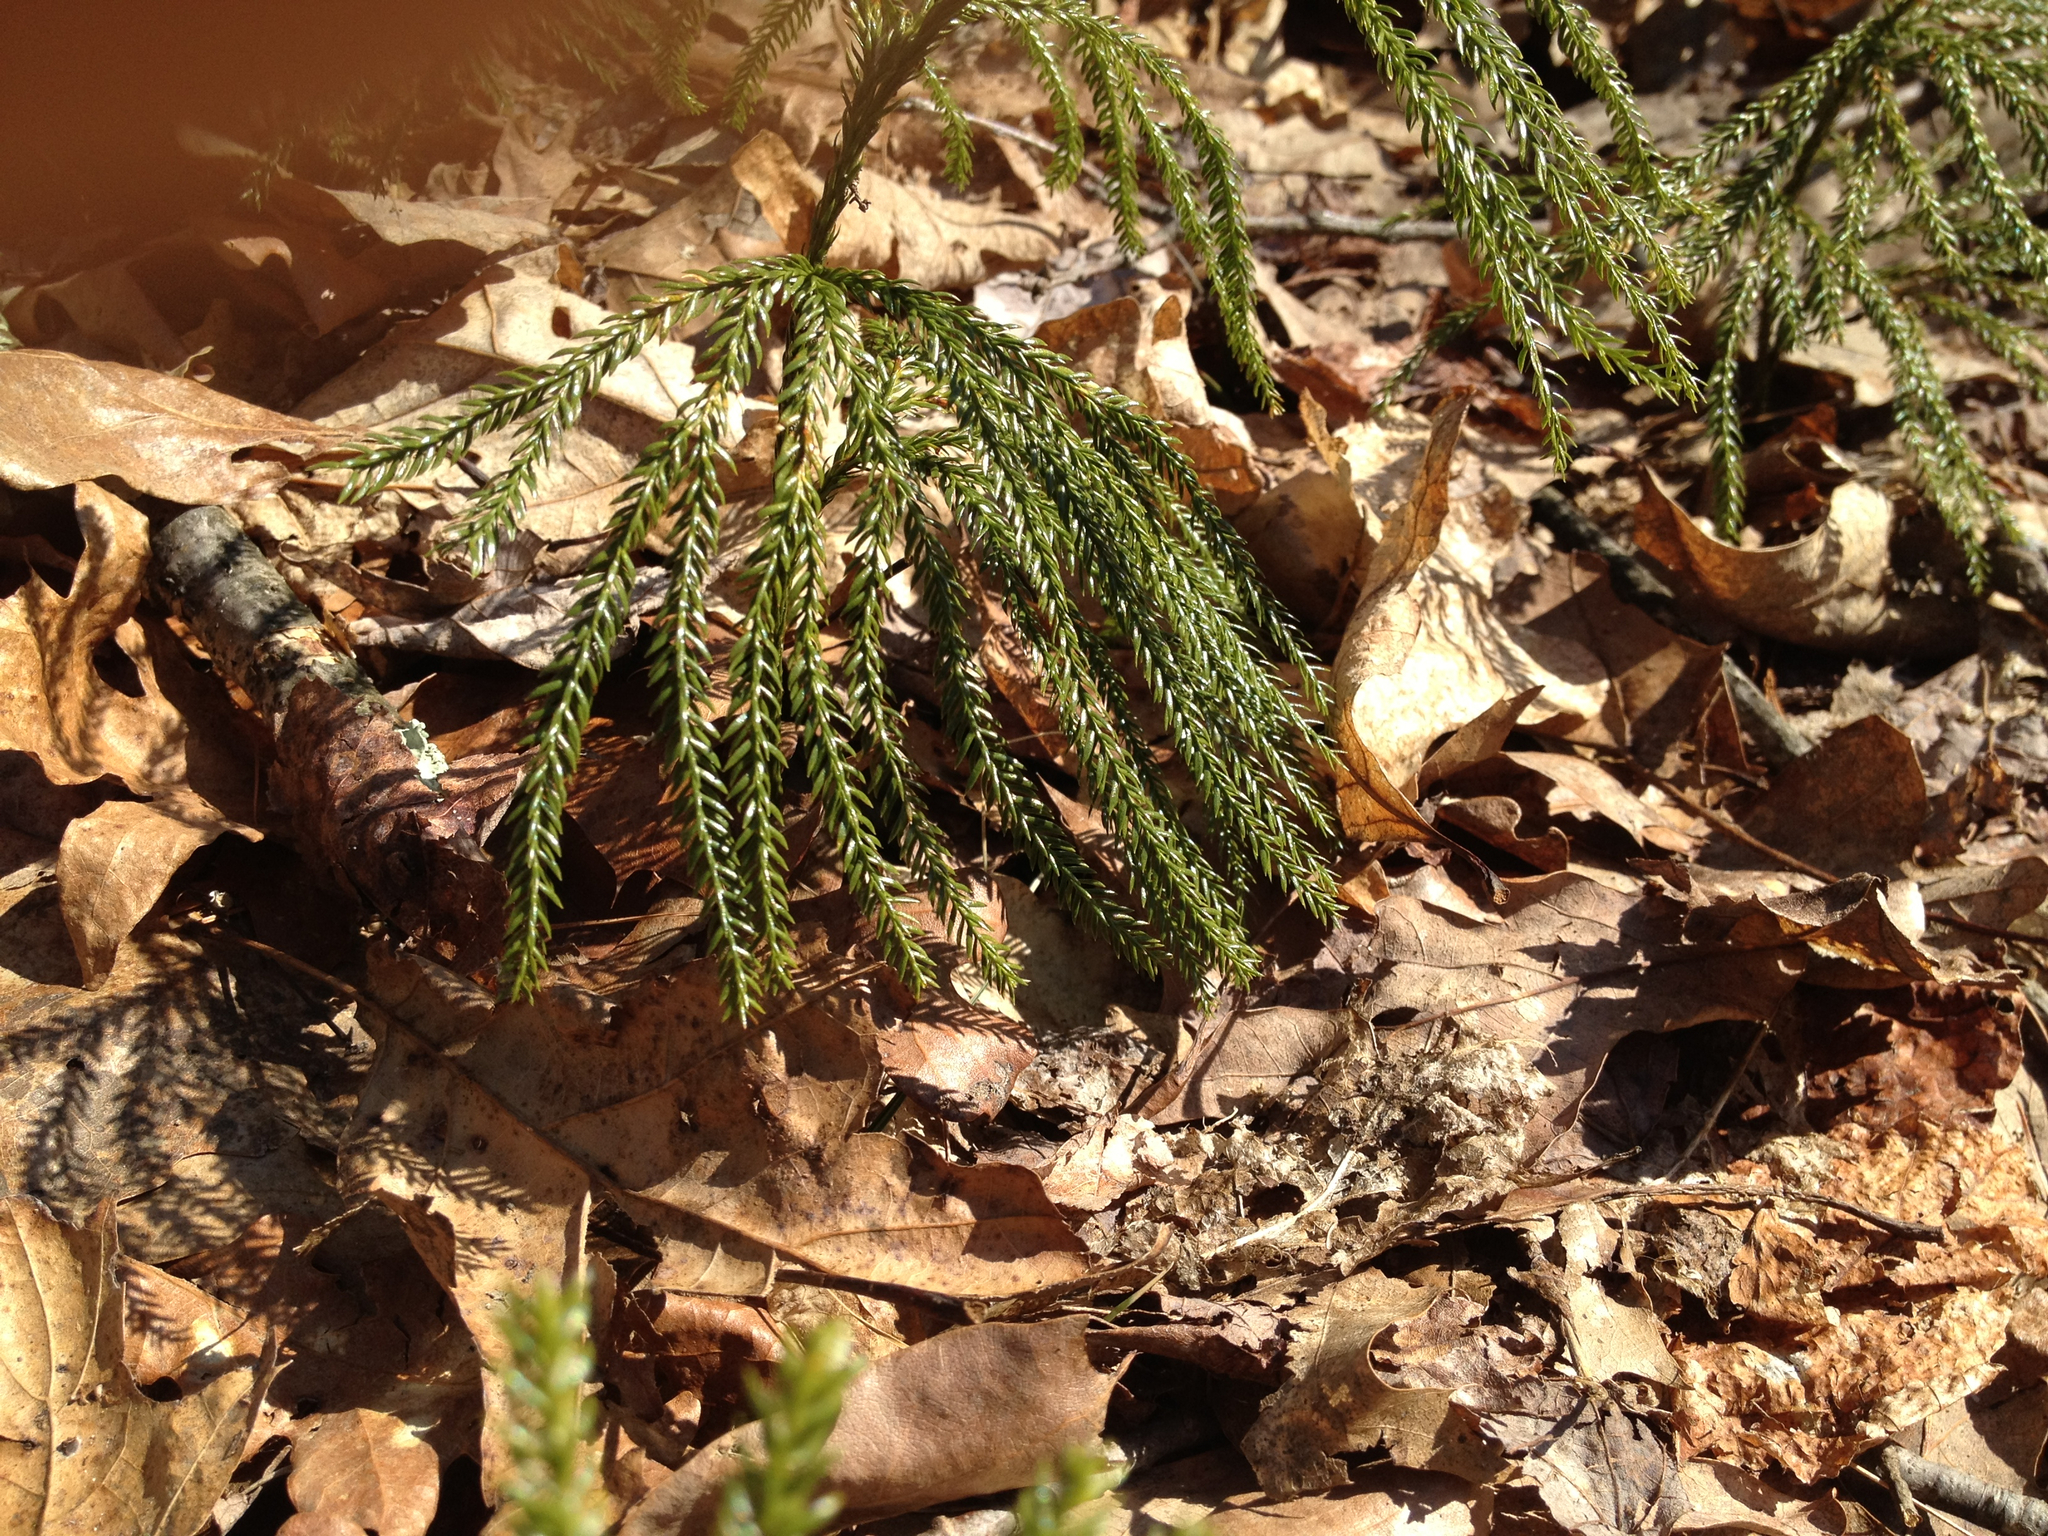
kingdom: Plantae
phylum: Tracheophyta
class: Lycopodiopsida
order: Lycopodiales
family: Lycopodiaceae
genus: Dendrolycopodium
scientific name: Dendrolycopodium obscurum
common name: Common ground-pine
